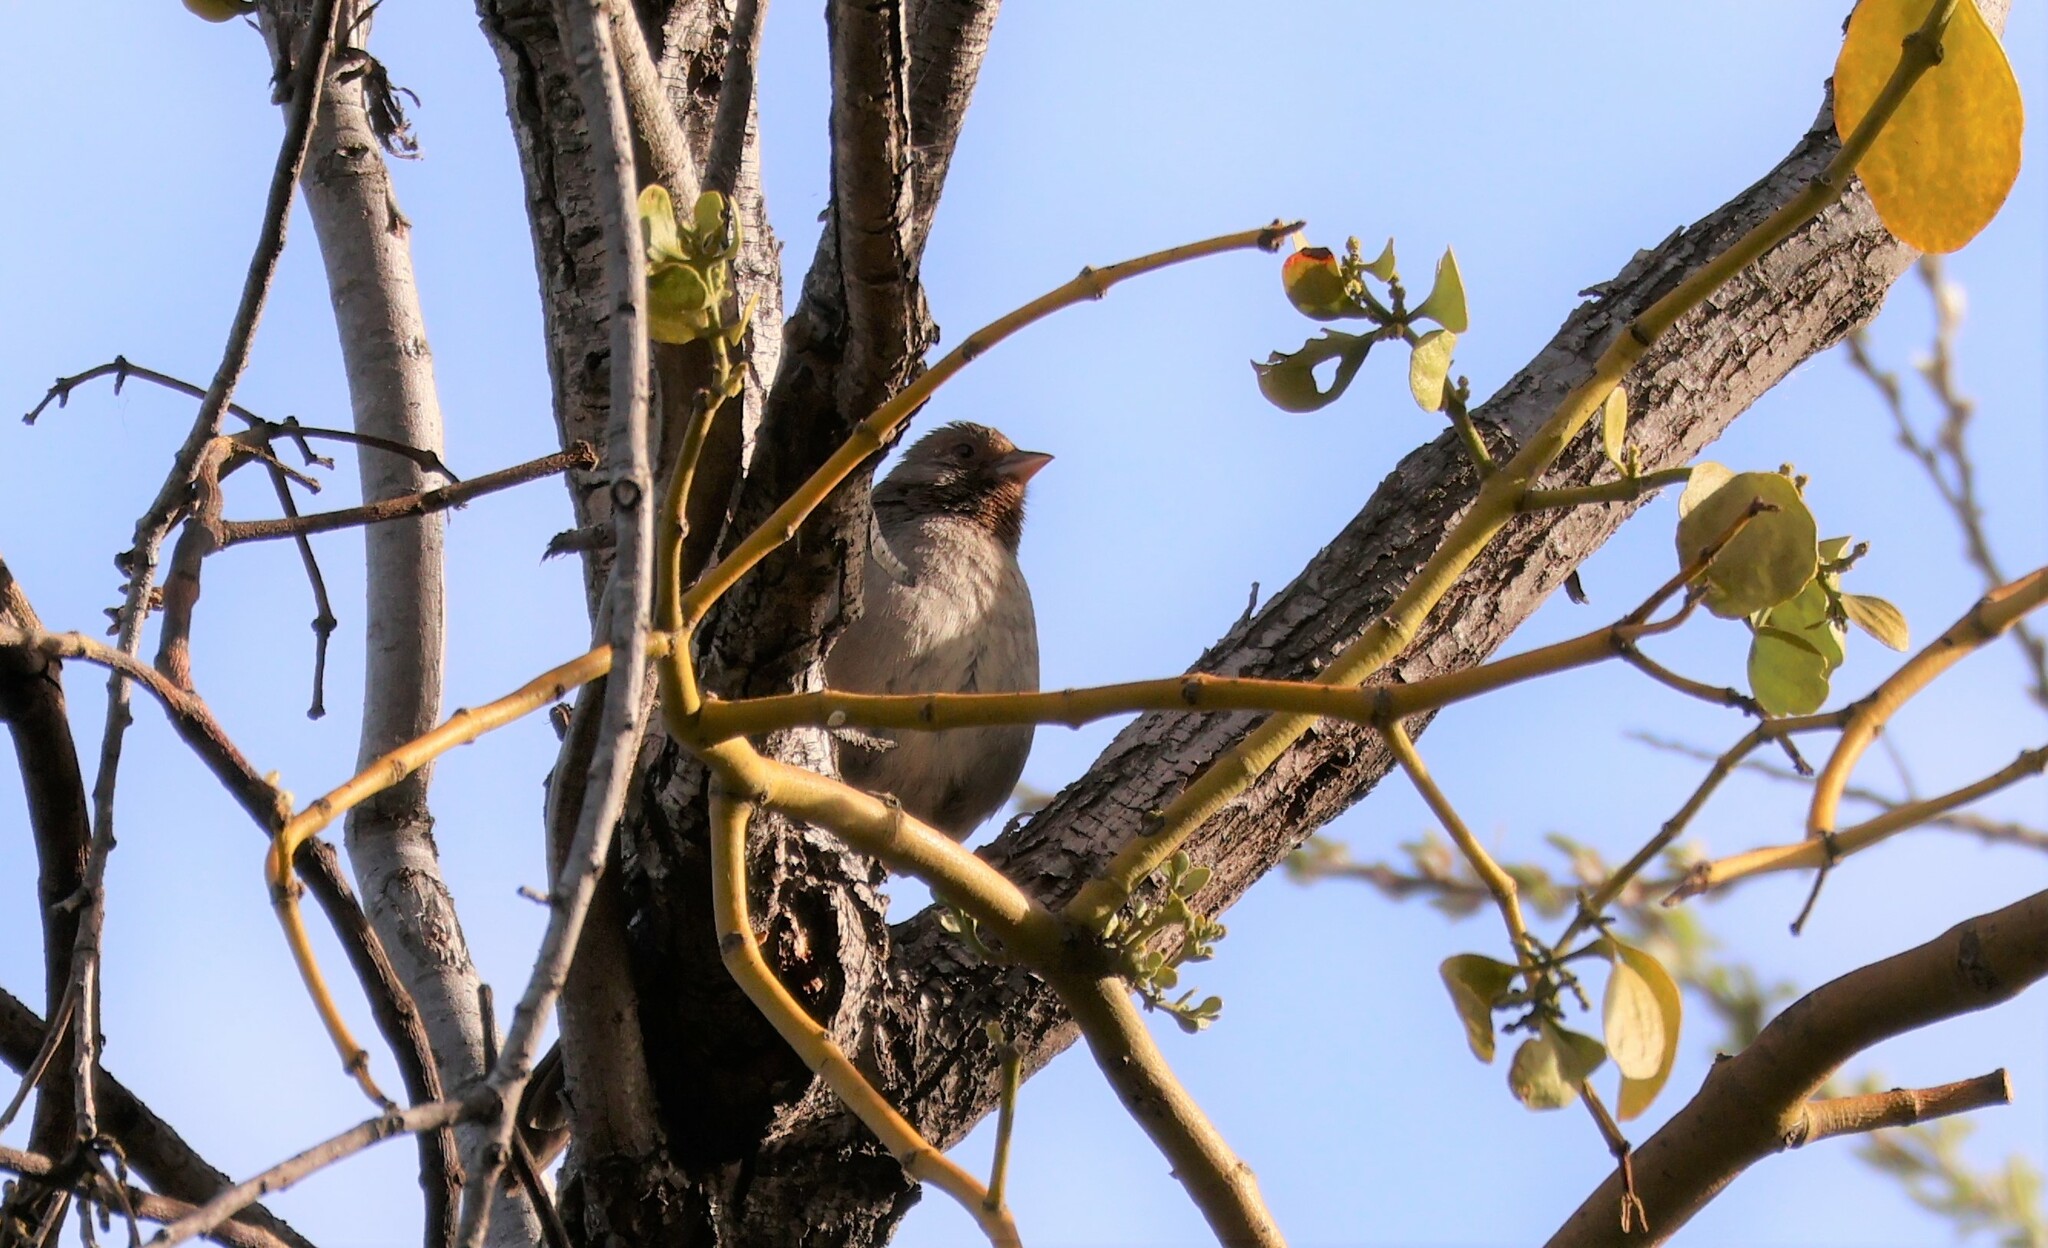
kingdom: Animalia
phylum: Chordata
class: Aves
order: Passeriformes
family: Passerellidae
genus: Melozone
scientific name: Melozone crissalis
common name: California towhee
